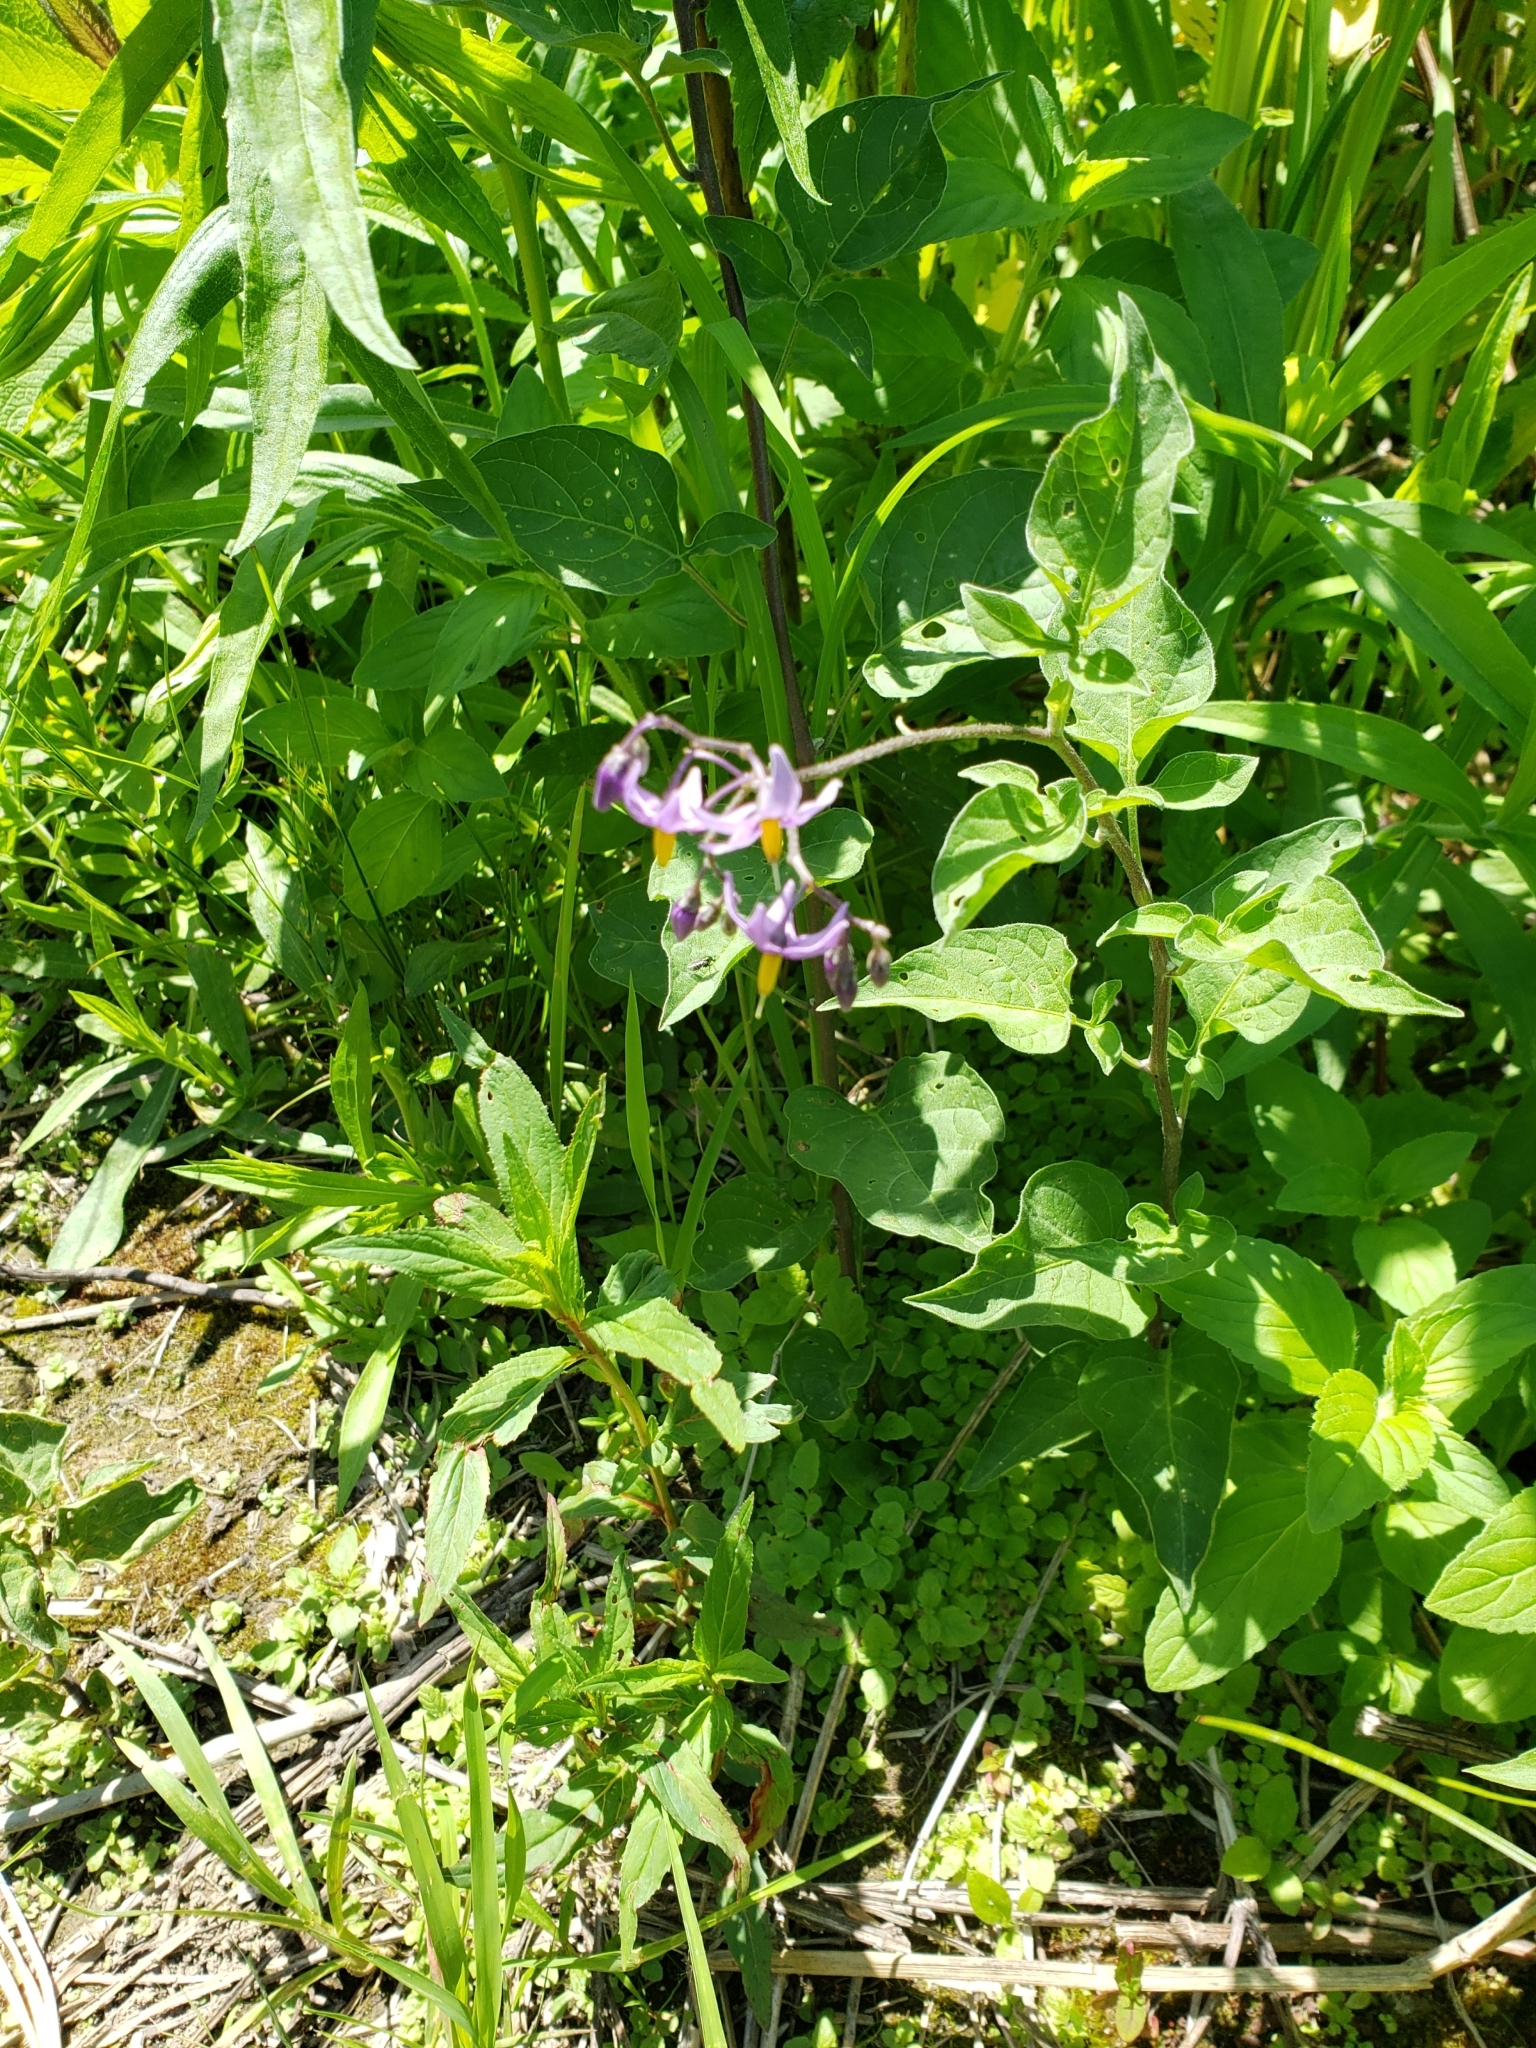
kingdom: Plantae
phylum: Tracheophyta
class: Magnoliopsida
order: Solanales
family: Solanaceae
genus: Solanum
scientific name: Solanum dulcamara
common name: Climbing nightshade
